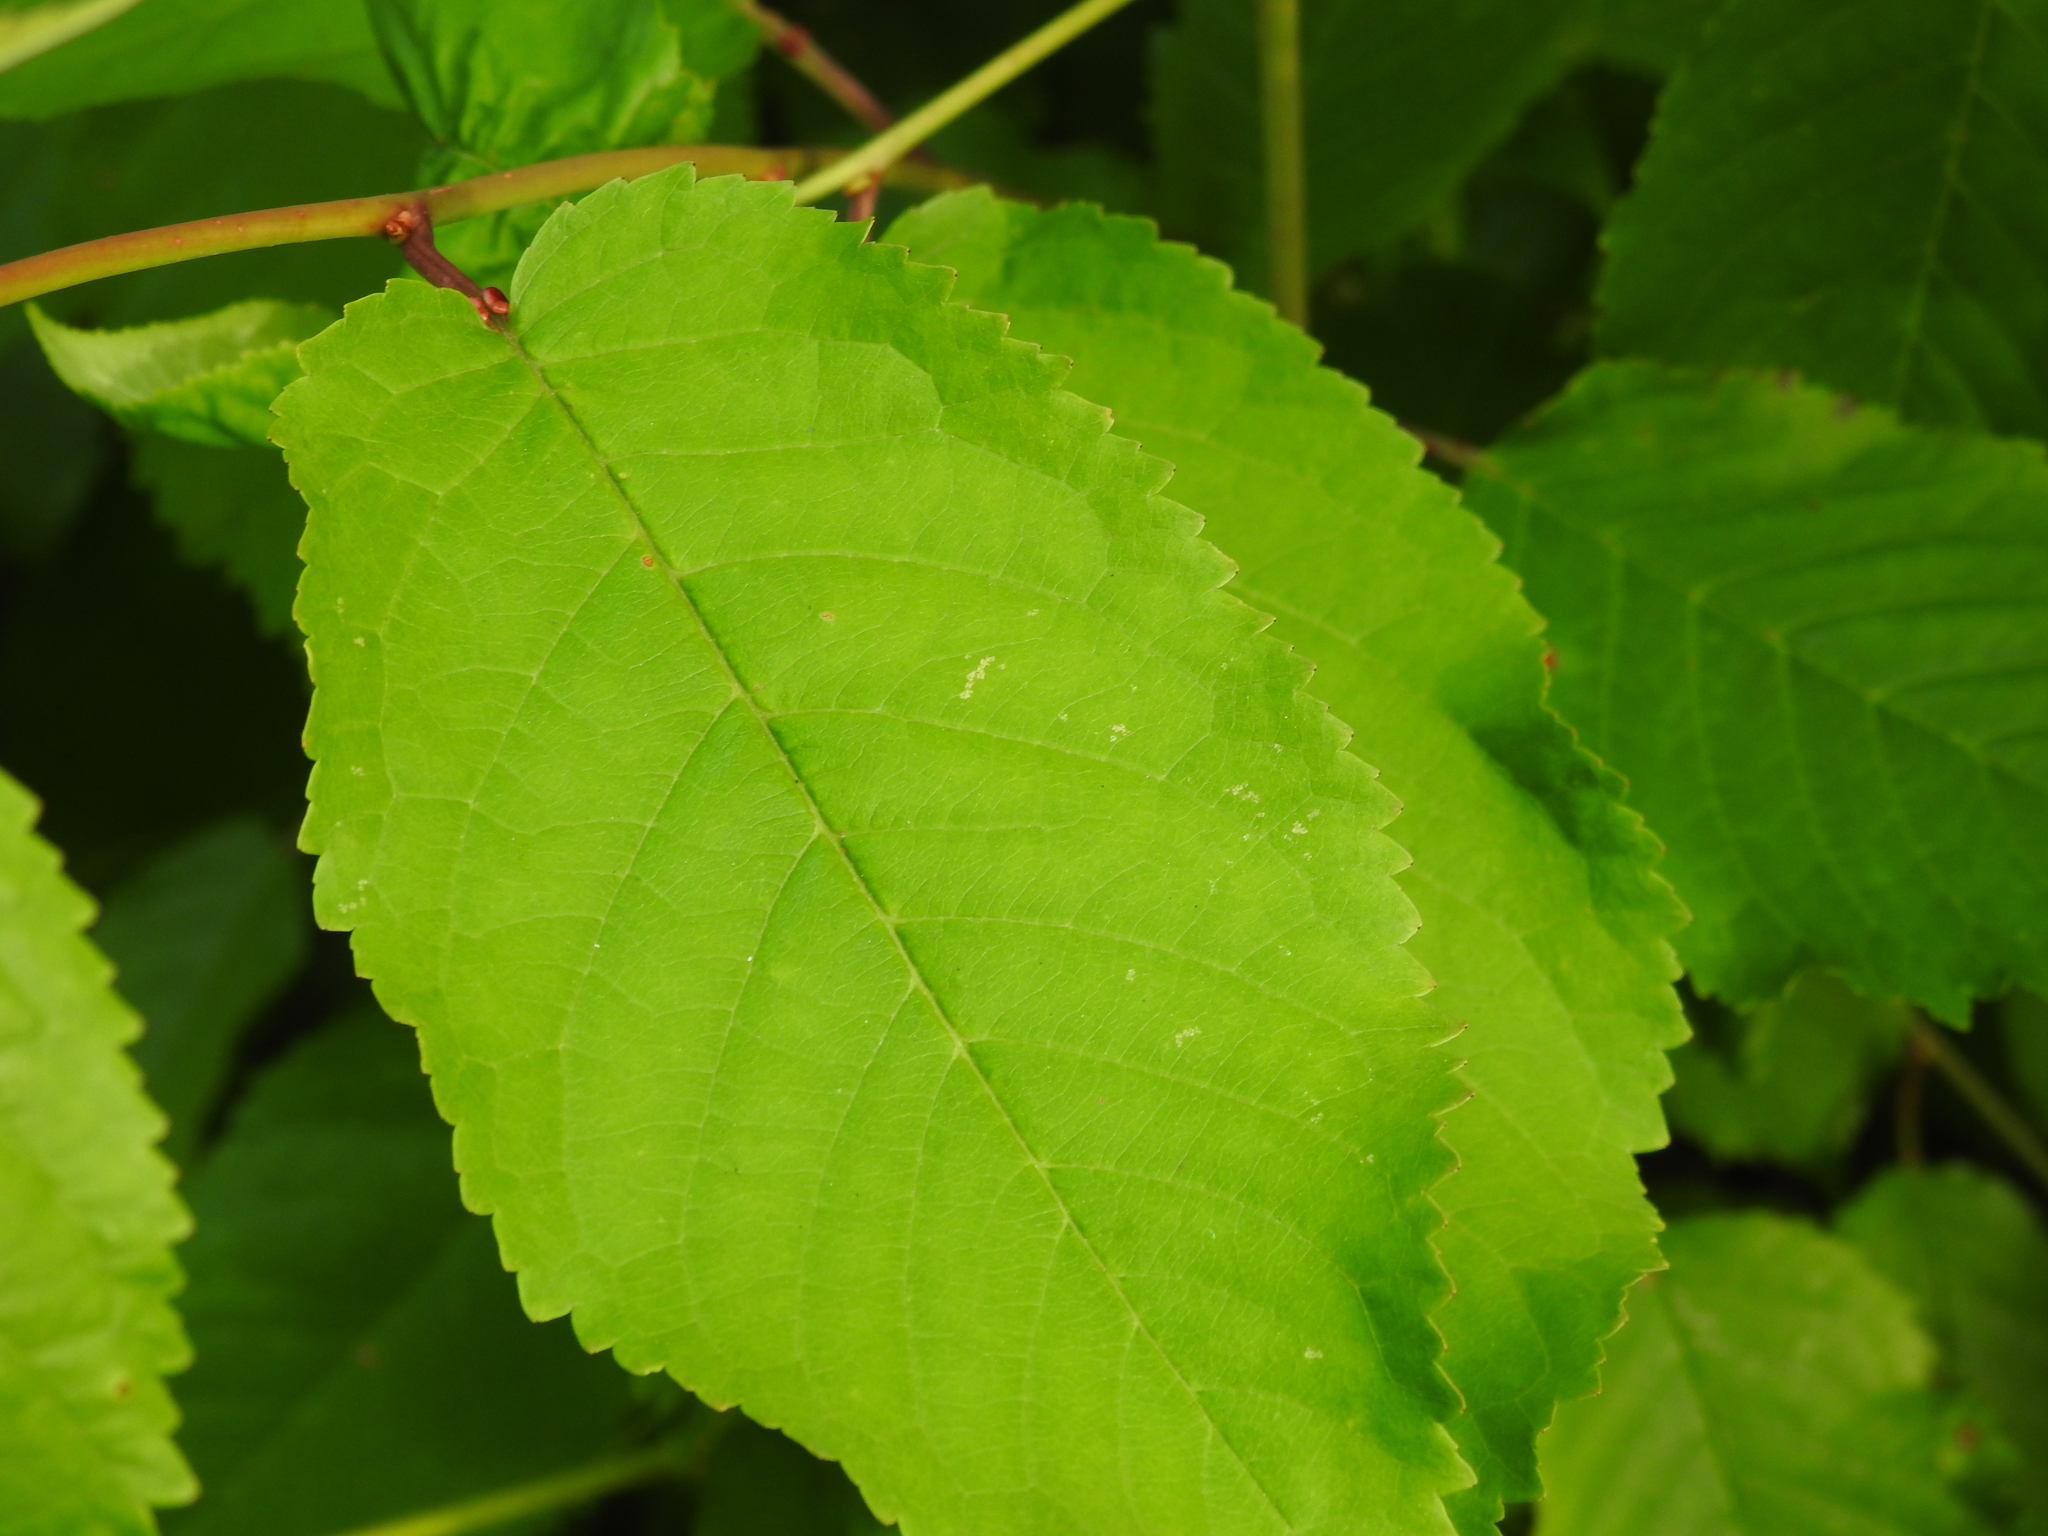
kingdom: Plantae
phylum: Tracheophyta
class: Magnoliopsida
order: Rosales
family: Rosaceae
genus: Prunus
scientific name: Prunus avium
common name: Sweet cherry
